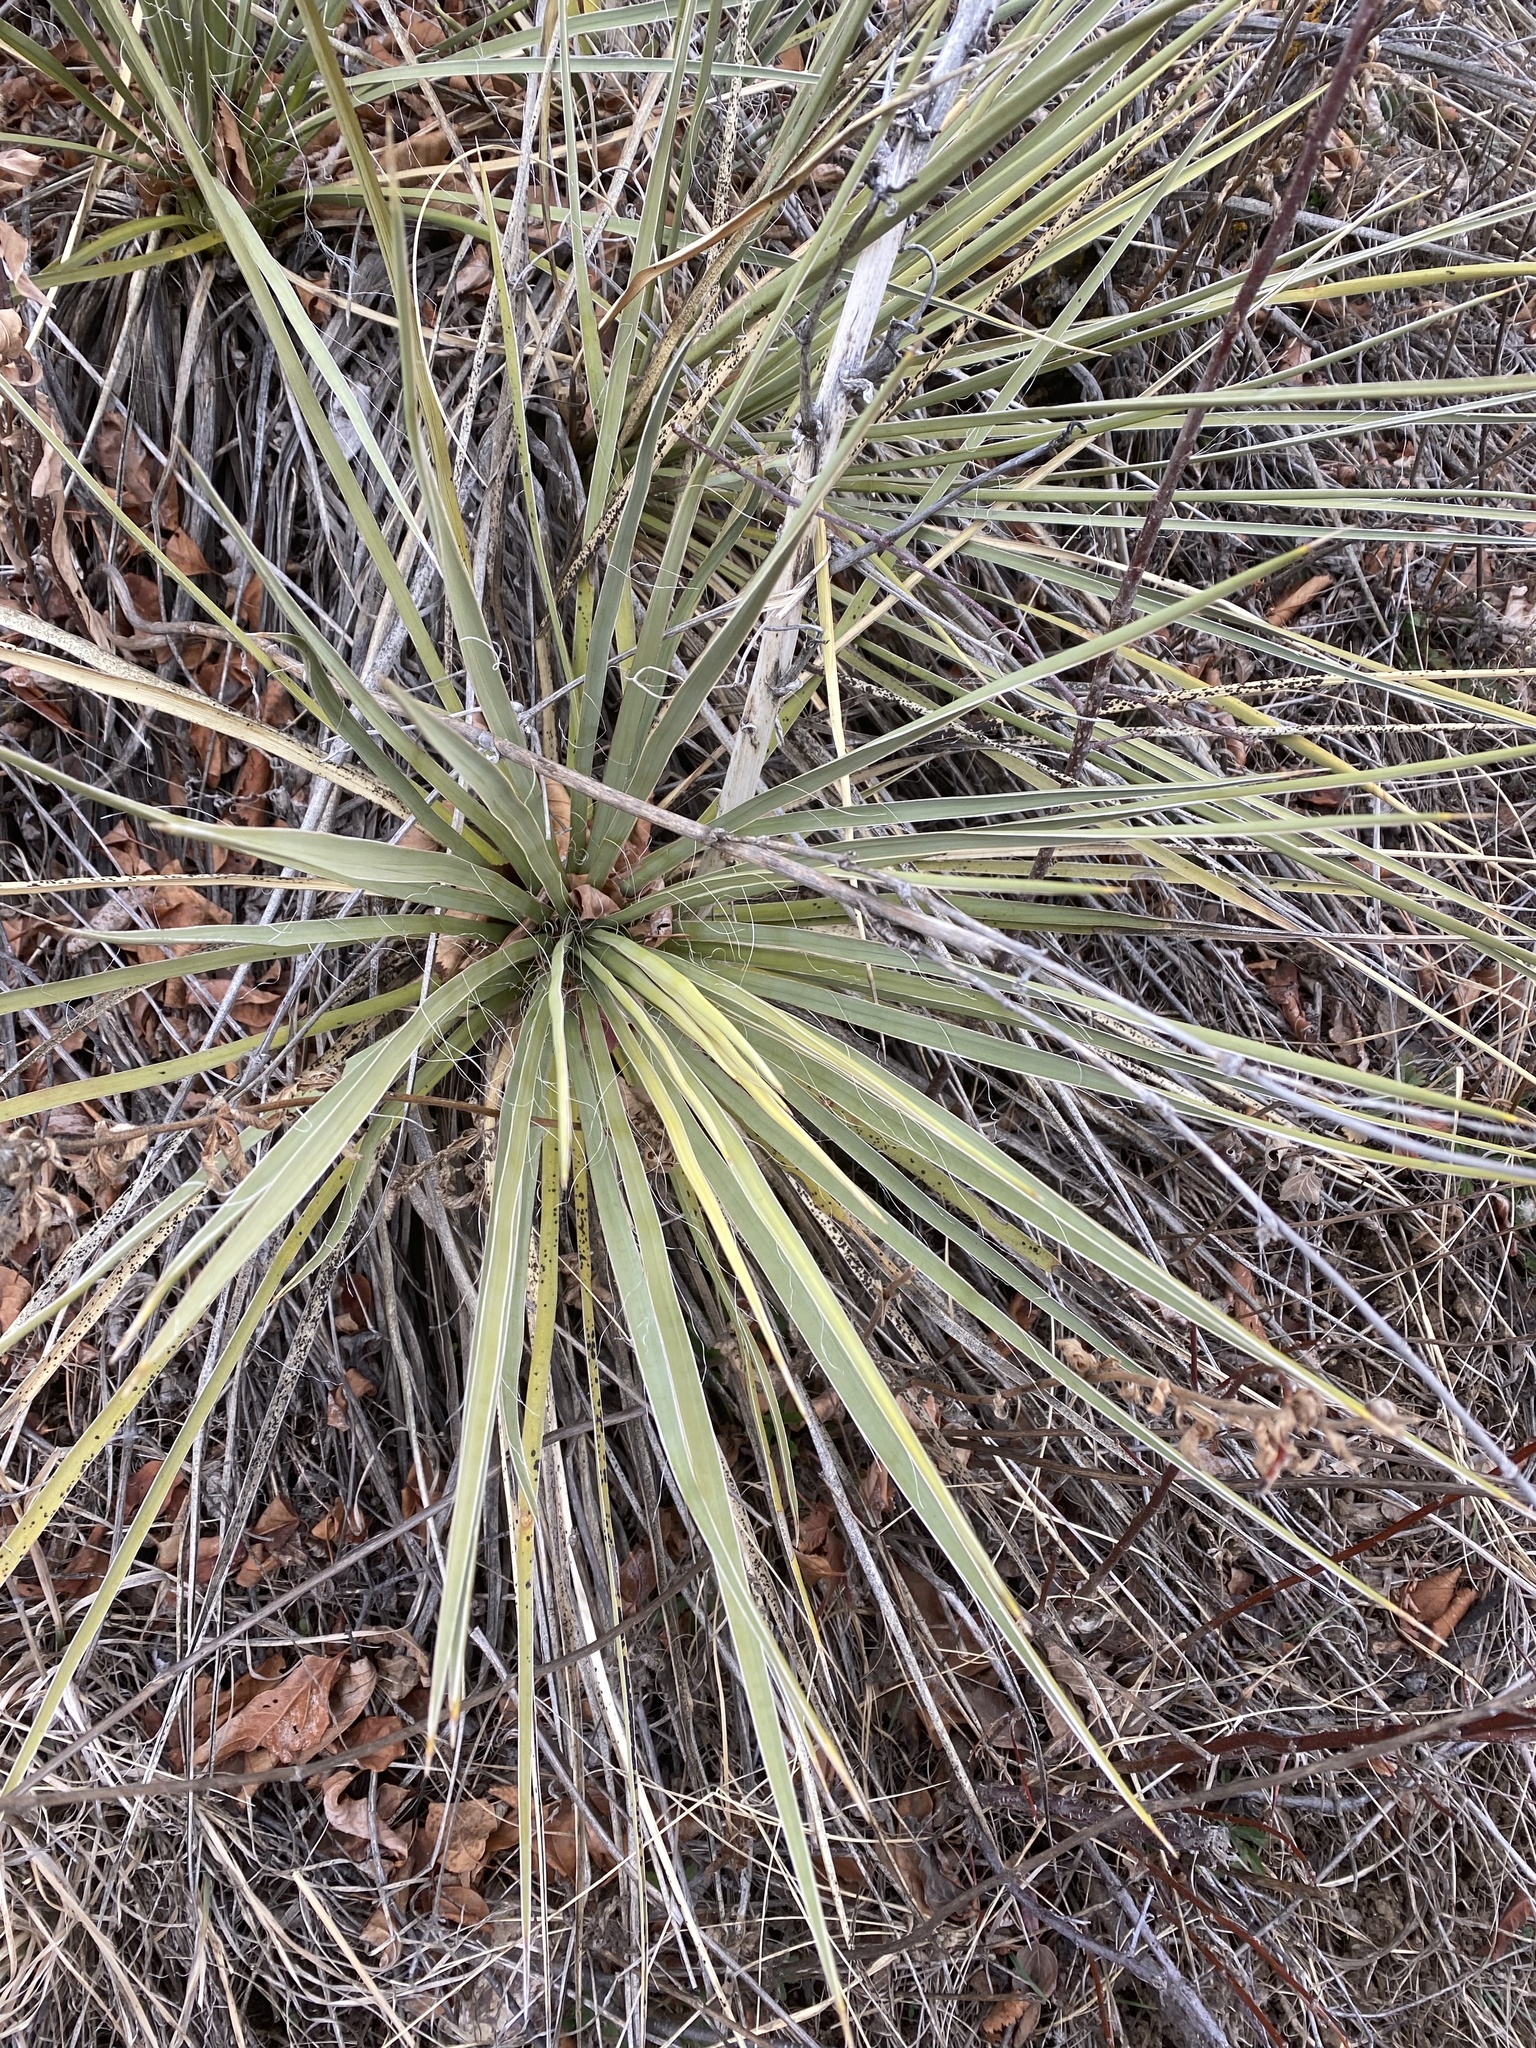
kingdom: Plantae
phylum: Tracheophyta
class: Liliopsida
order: Asparagales
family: Asparagaceae
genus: Yucca
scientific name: Yucca glauca
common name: Great plains yucca
